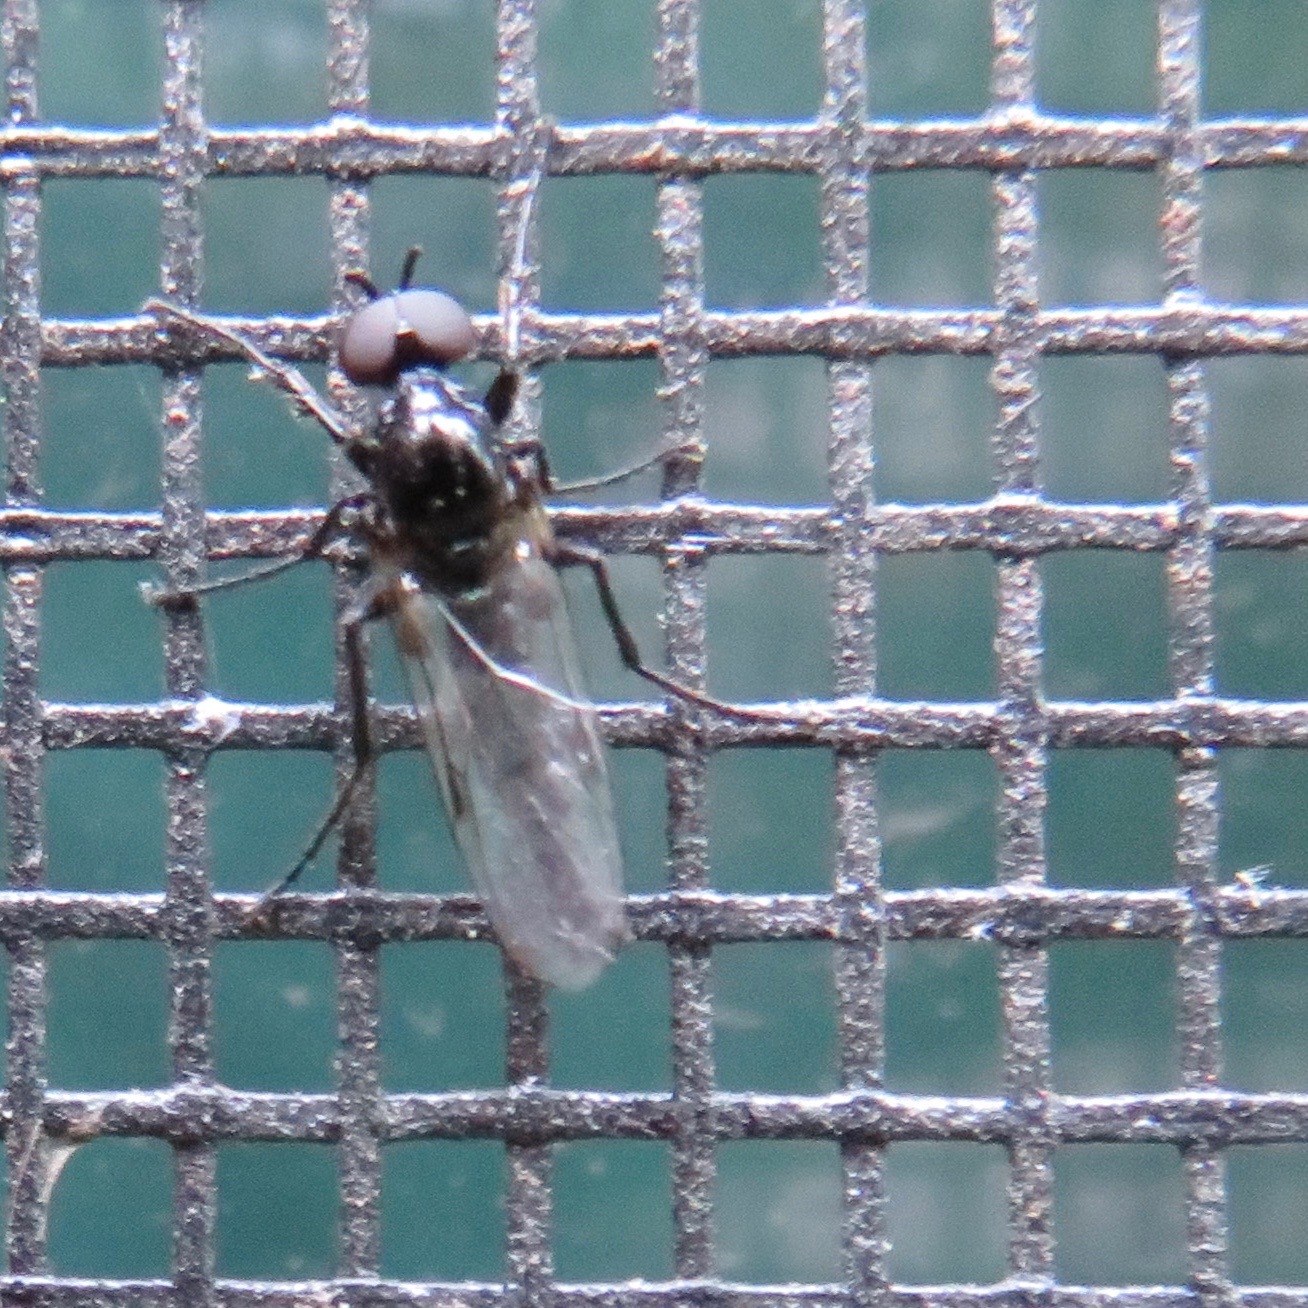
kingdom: Animalia
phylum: Arthropoda
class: Insecta
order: Diptera
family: Bibionidae
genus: Dilophus
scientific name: Dilophus
